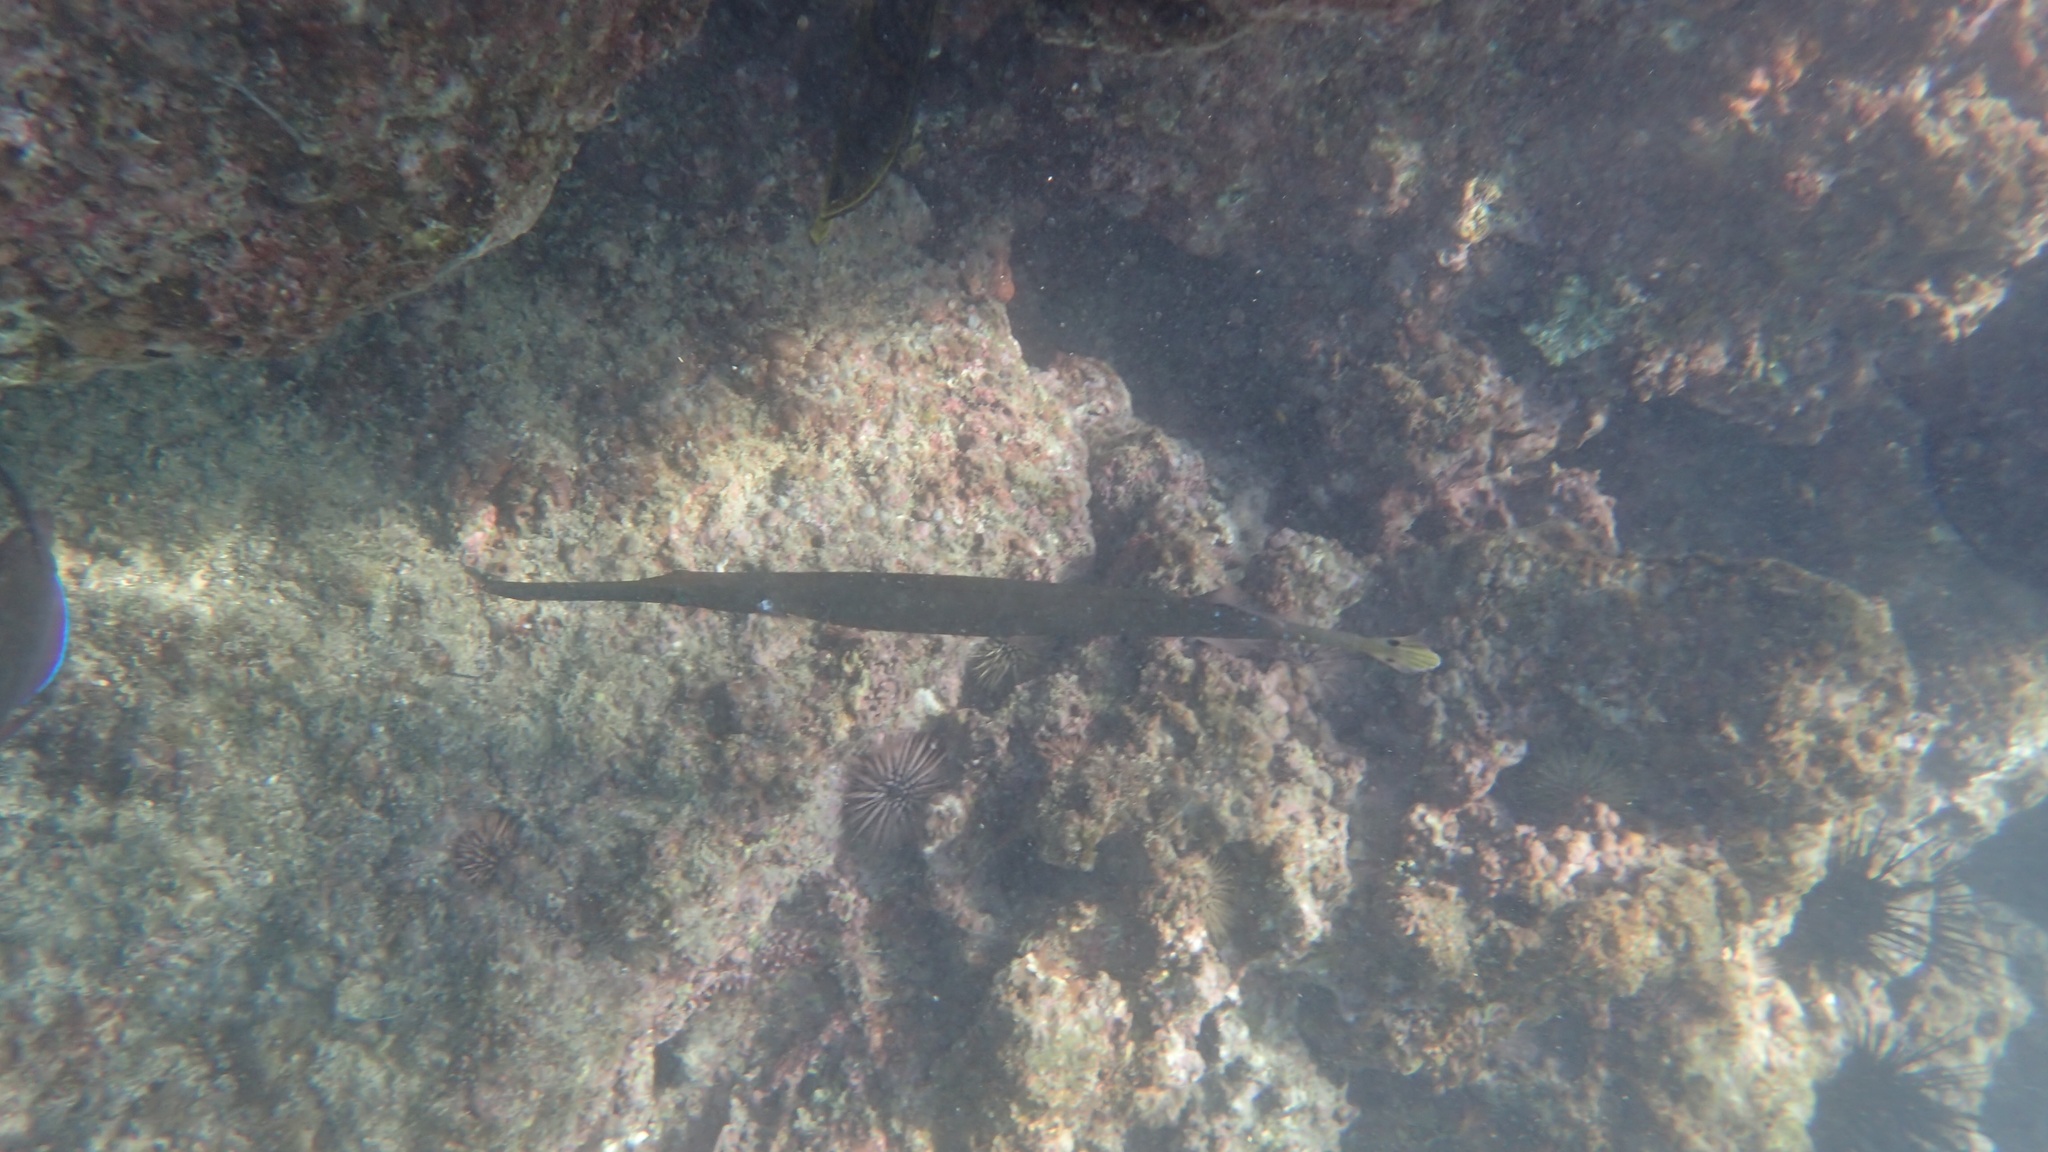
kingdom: Animalia
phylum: Chordata
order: Syngnathiformes
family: Aulostomidae
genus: Aulostomus
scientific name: Aulostomus chinensis
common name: Chinese trumpetfish
